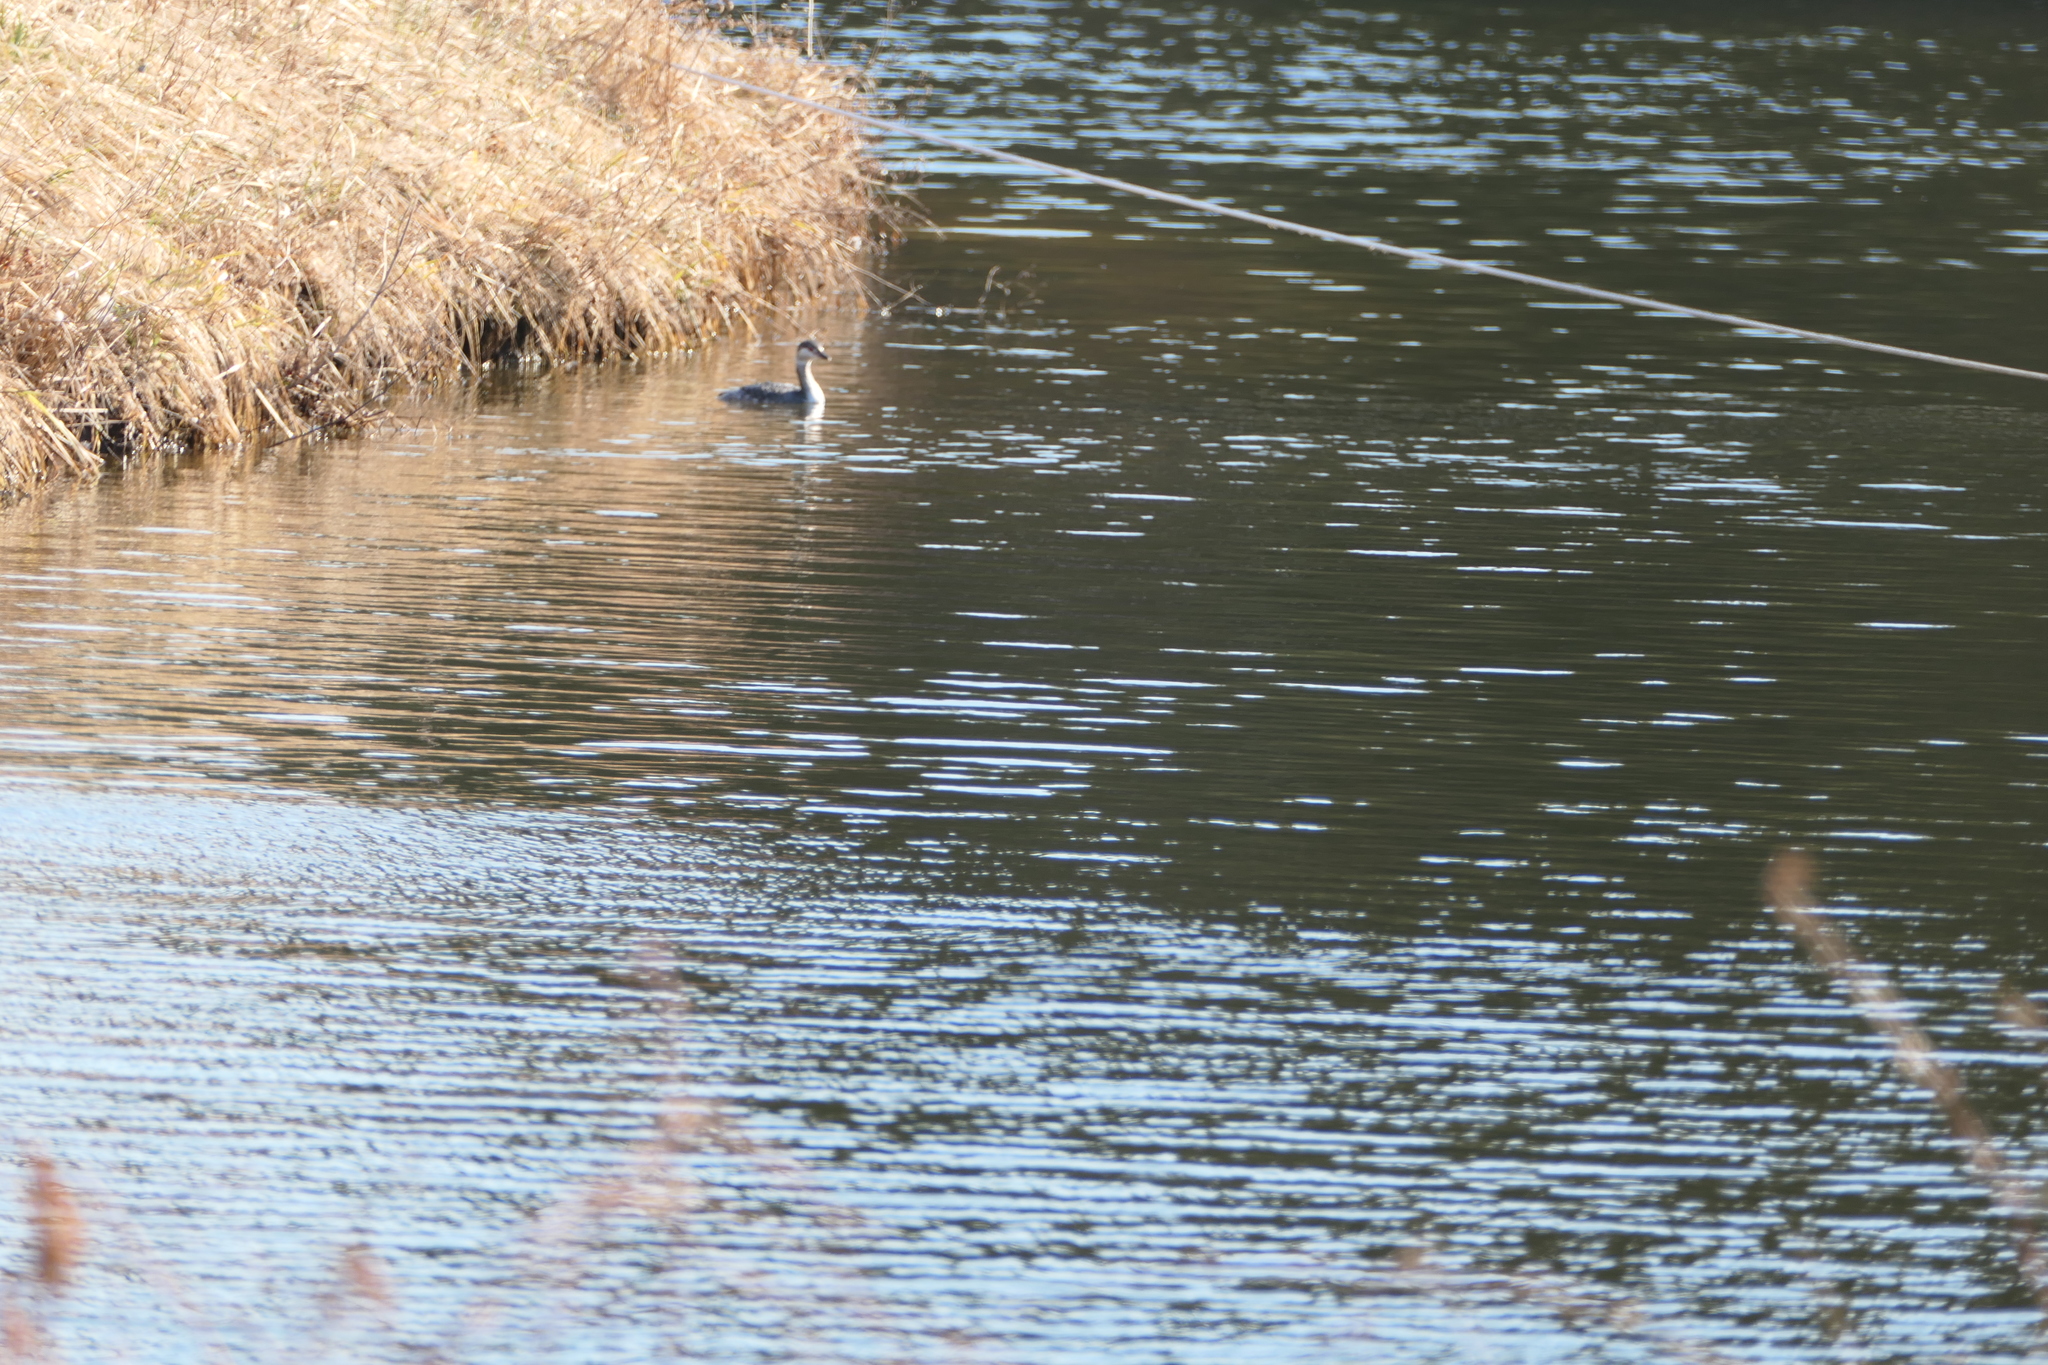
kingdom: Animalia
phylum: Chordata
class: Aves
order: Podicipediformes
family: Podicipedidae
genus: Podiceps
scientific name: Podiceps auritus
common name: Horned grebe
